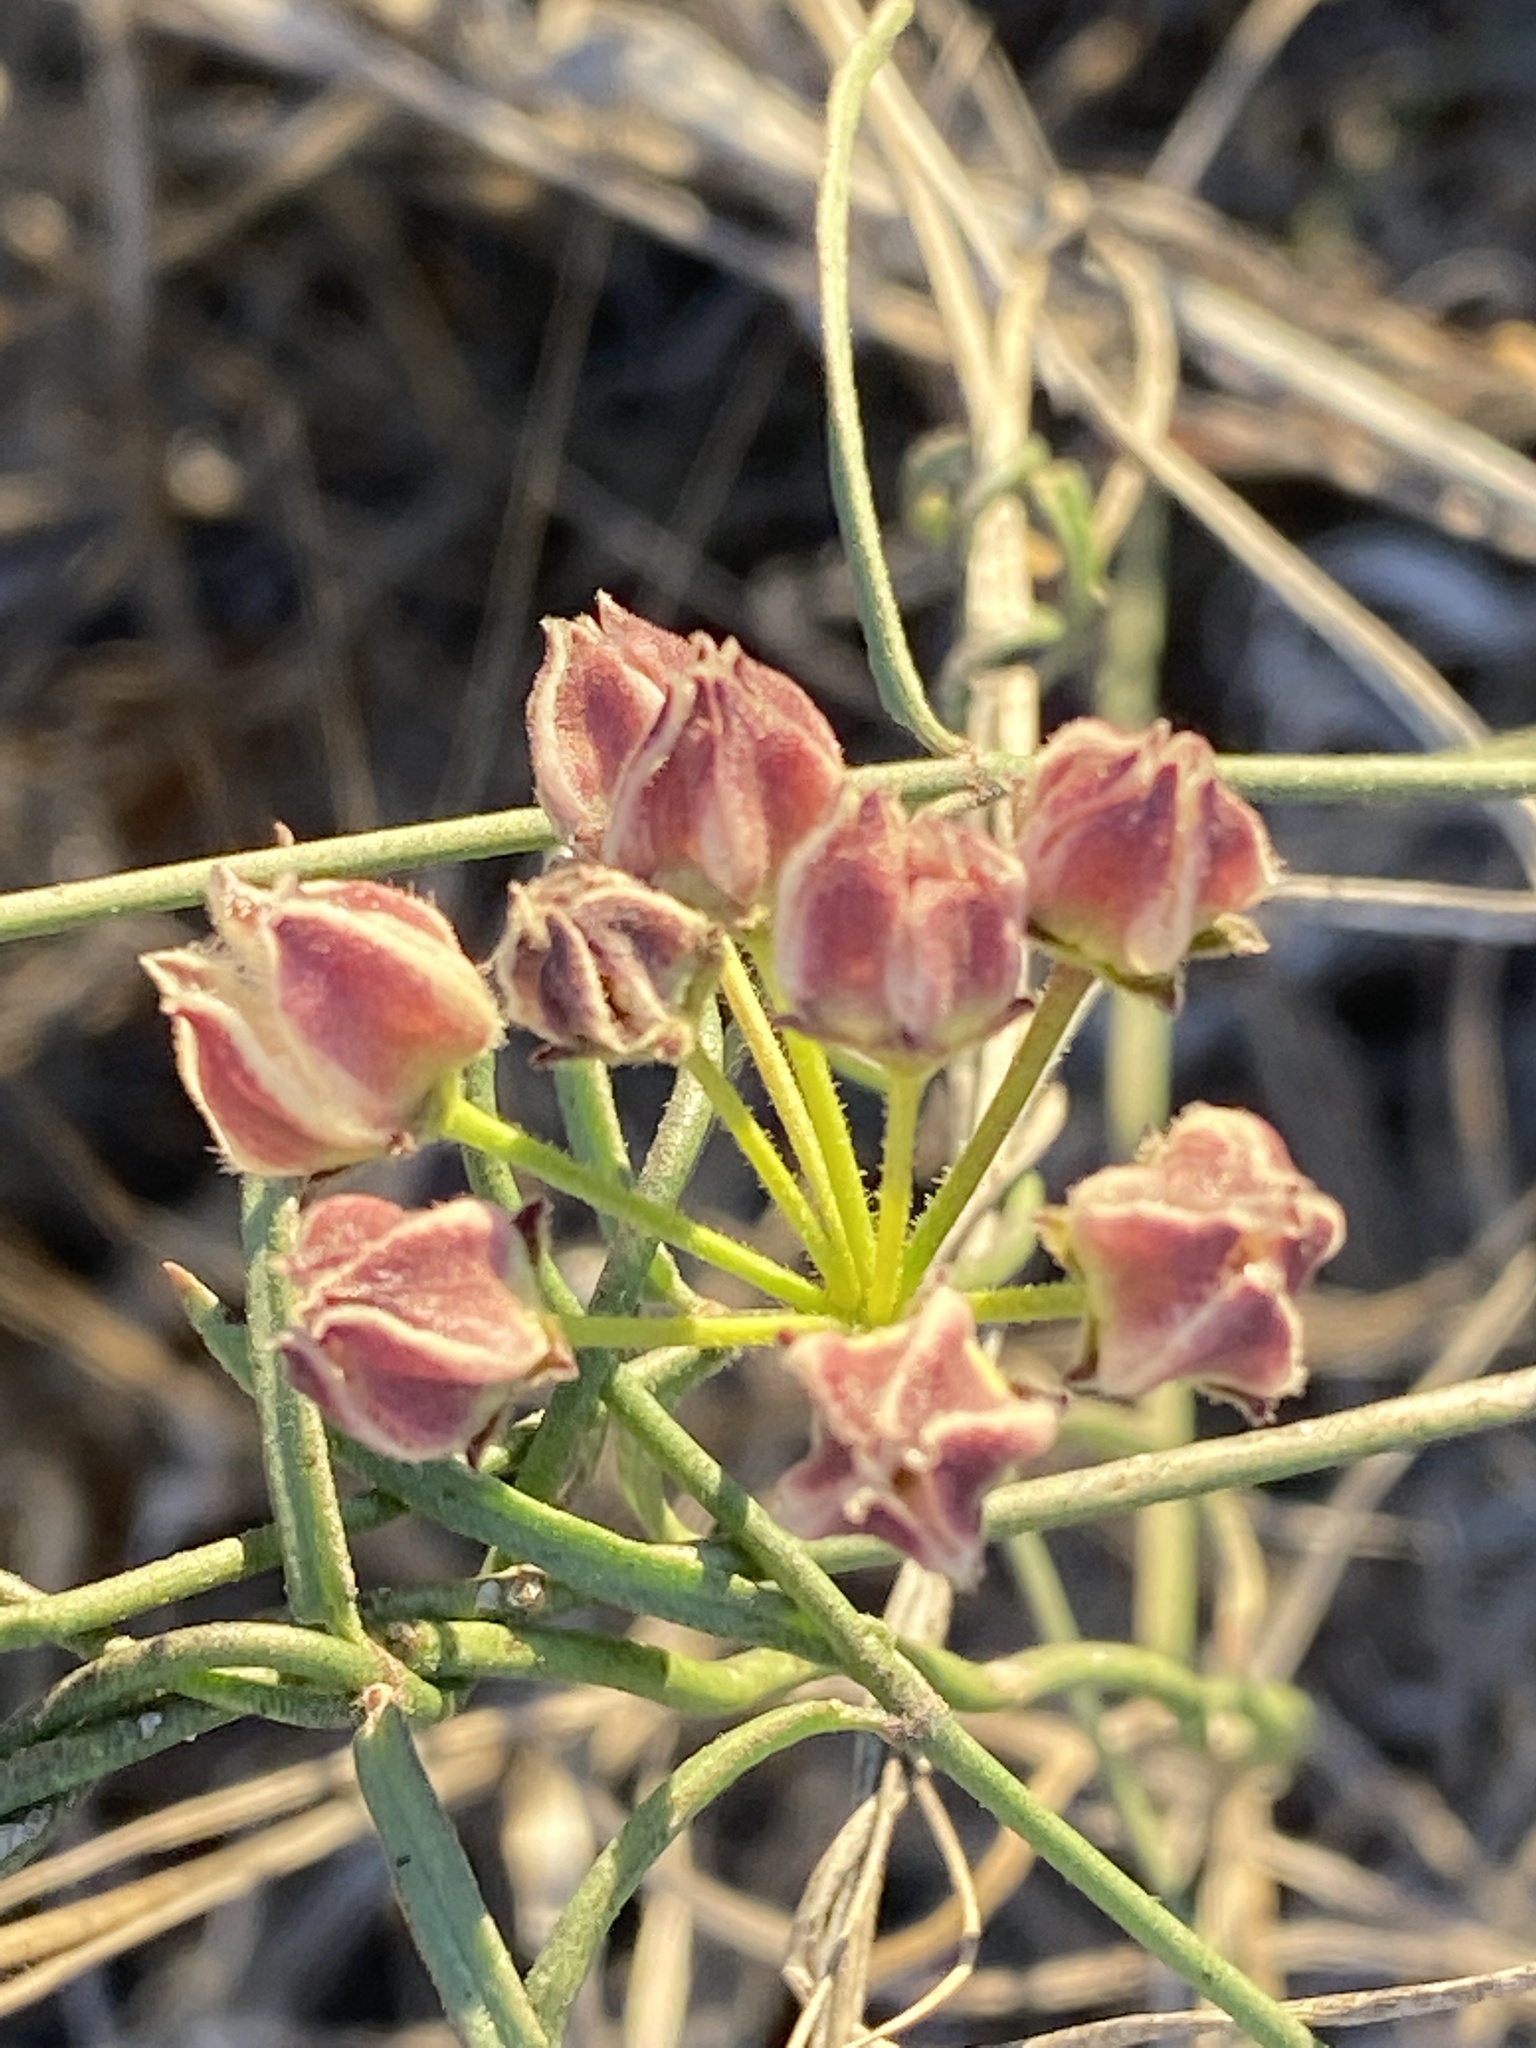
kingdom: Plantae
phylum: Tracheophyta
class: Magnoliopsida
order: Gentianales
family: Apocynaceae
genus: Funastrum
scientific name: Funastrum heterophyllum
